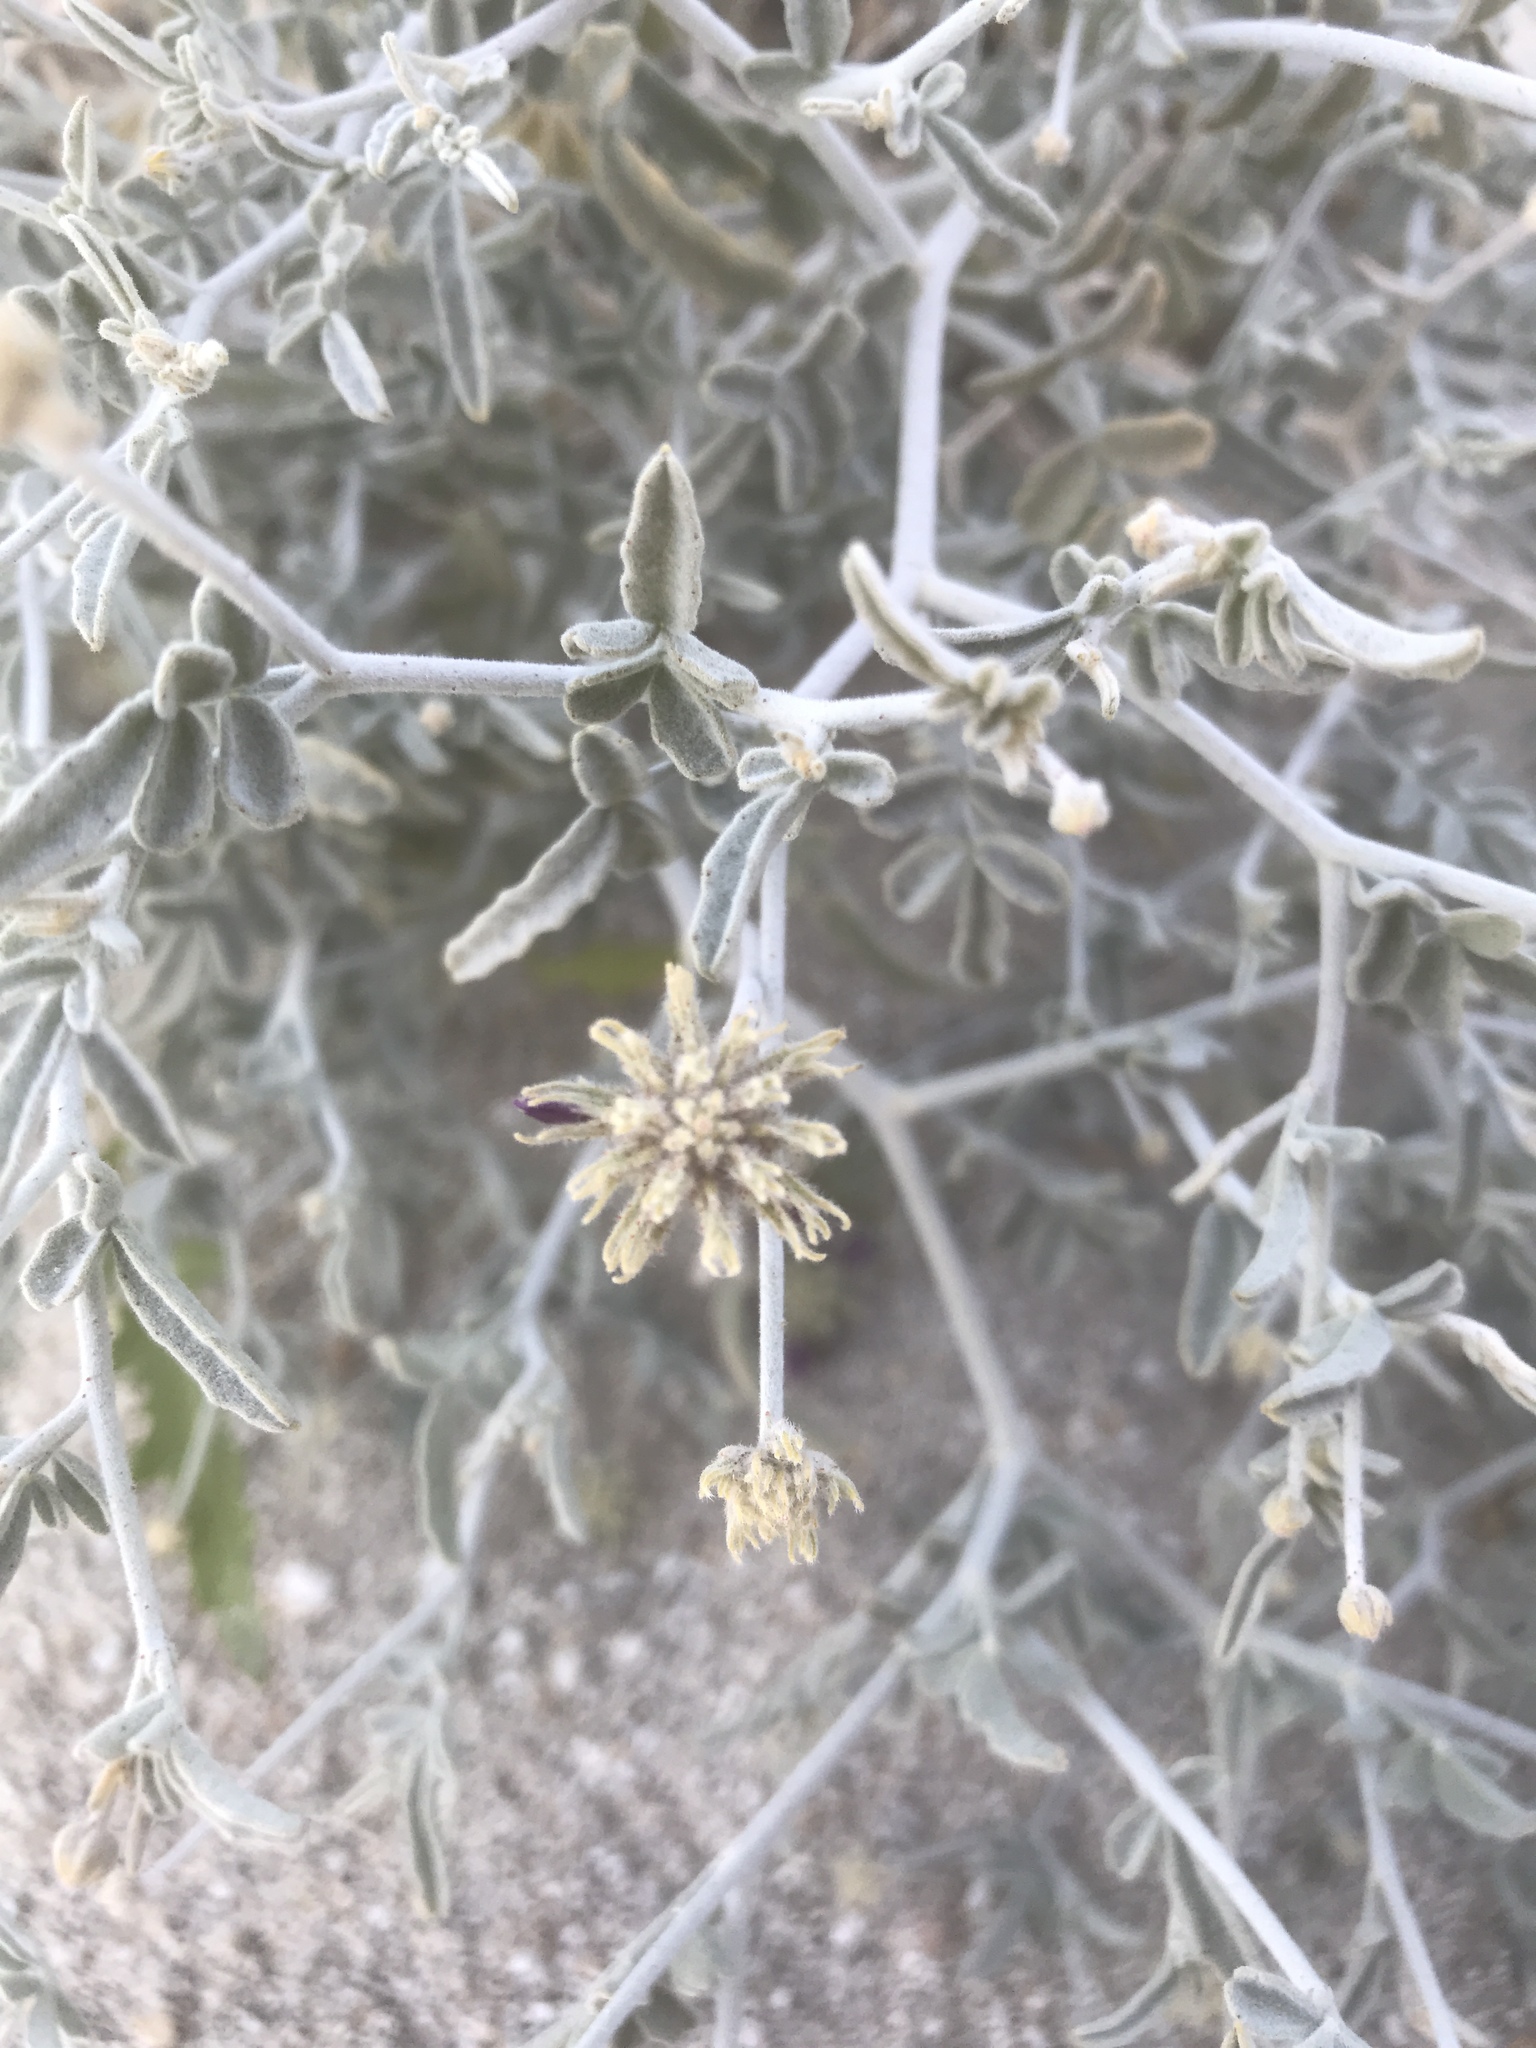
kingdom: Plantae
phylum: Tracheophyta
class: Magnoliopsida
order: Fabales
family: Fabaceae
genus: Psorothamnus
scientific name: Psorothamnus emoryi
